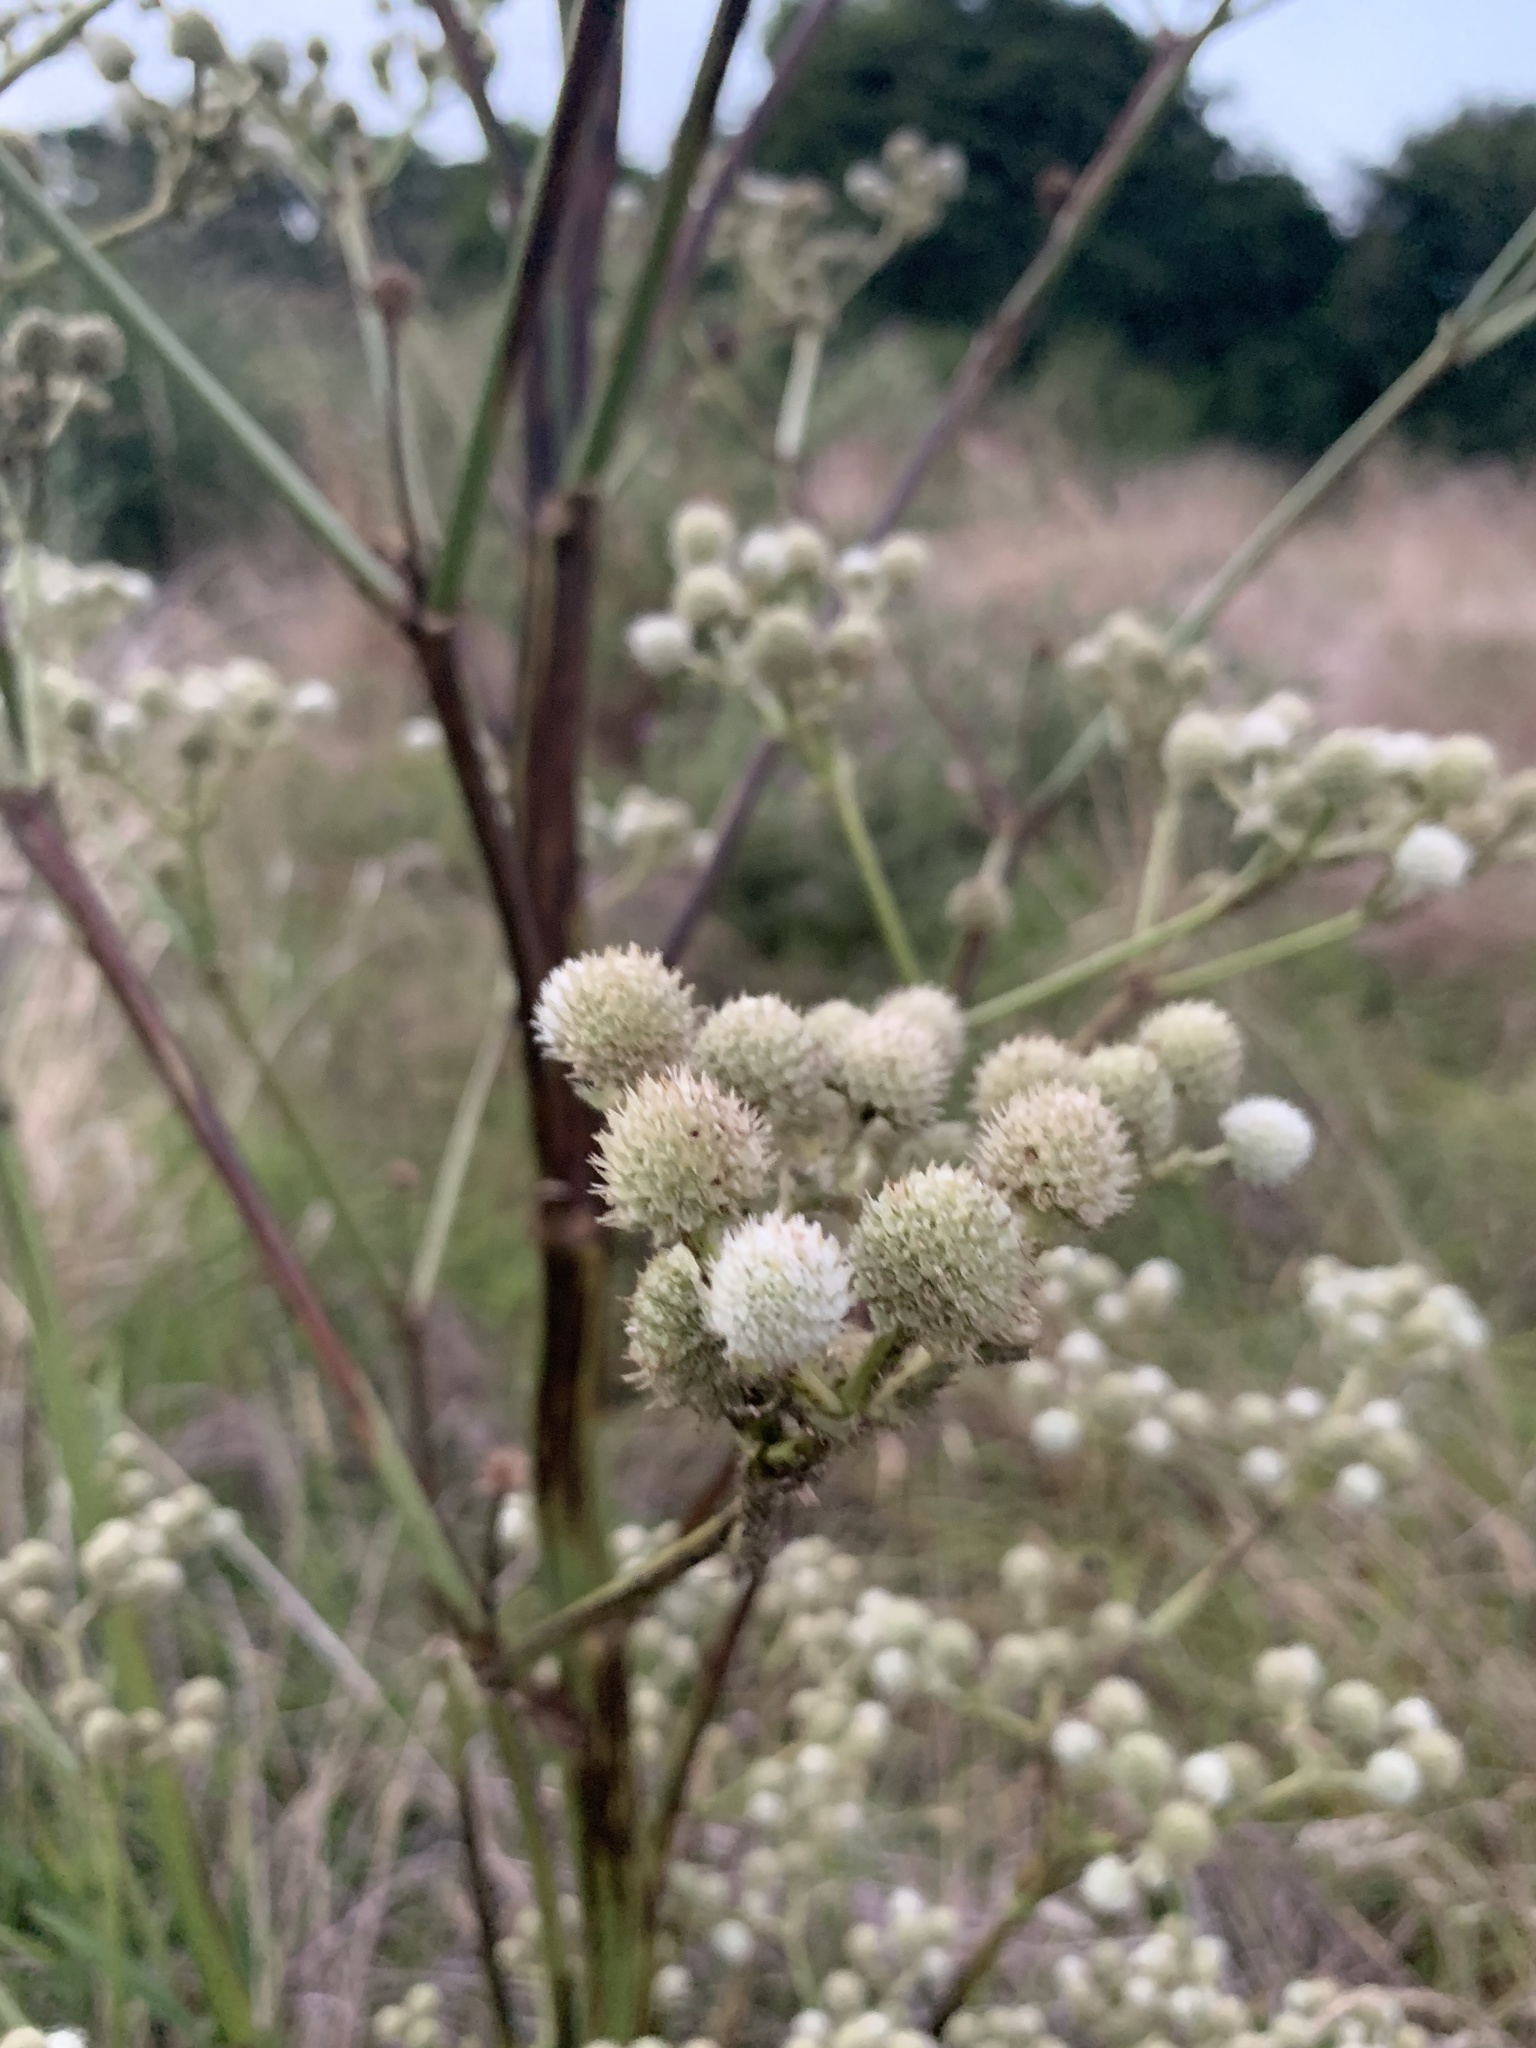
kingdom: Plantae
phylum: Tracheophyta
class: Magnoliopsida
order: Apiales
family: Apiaceae
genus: Eryngium
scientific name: Eryngium serra
